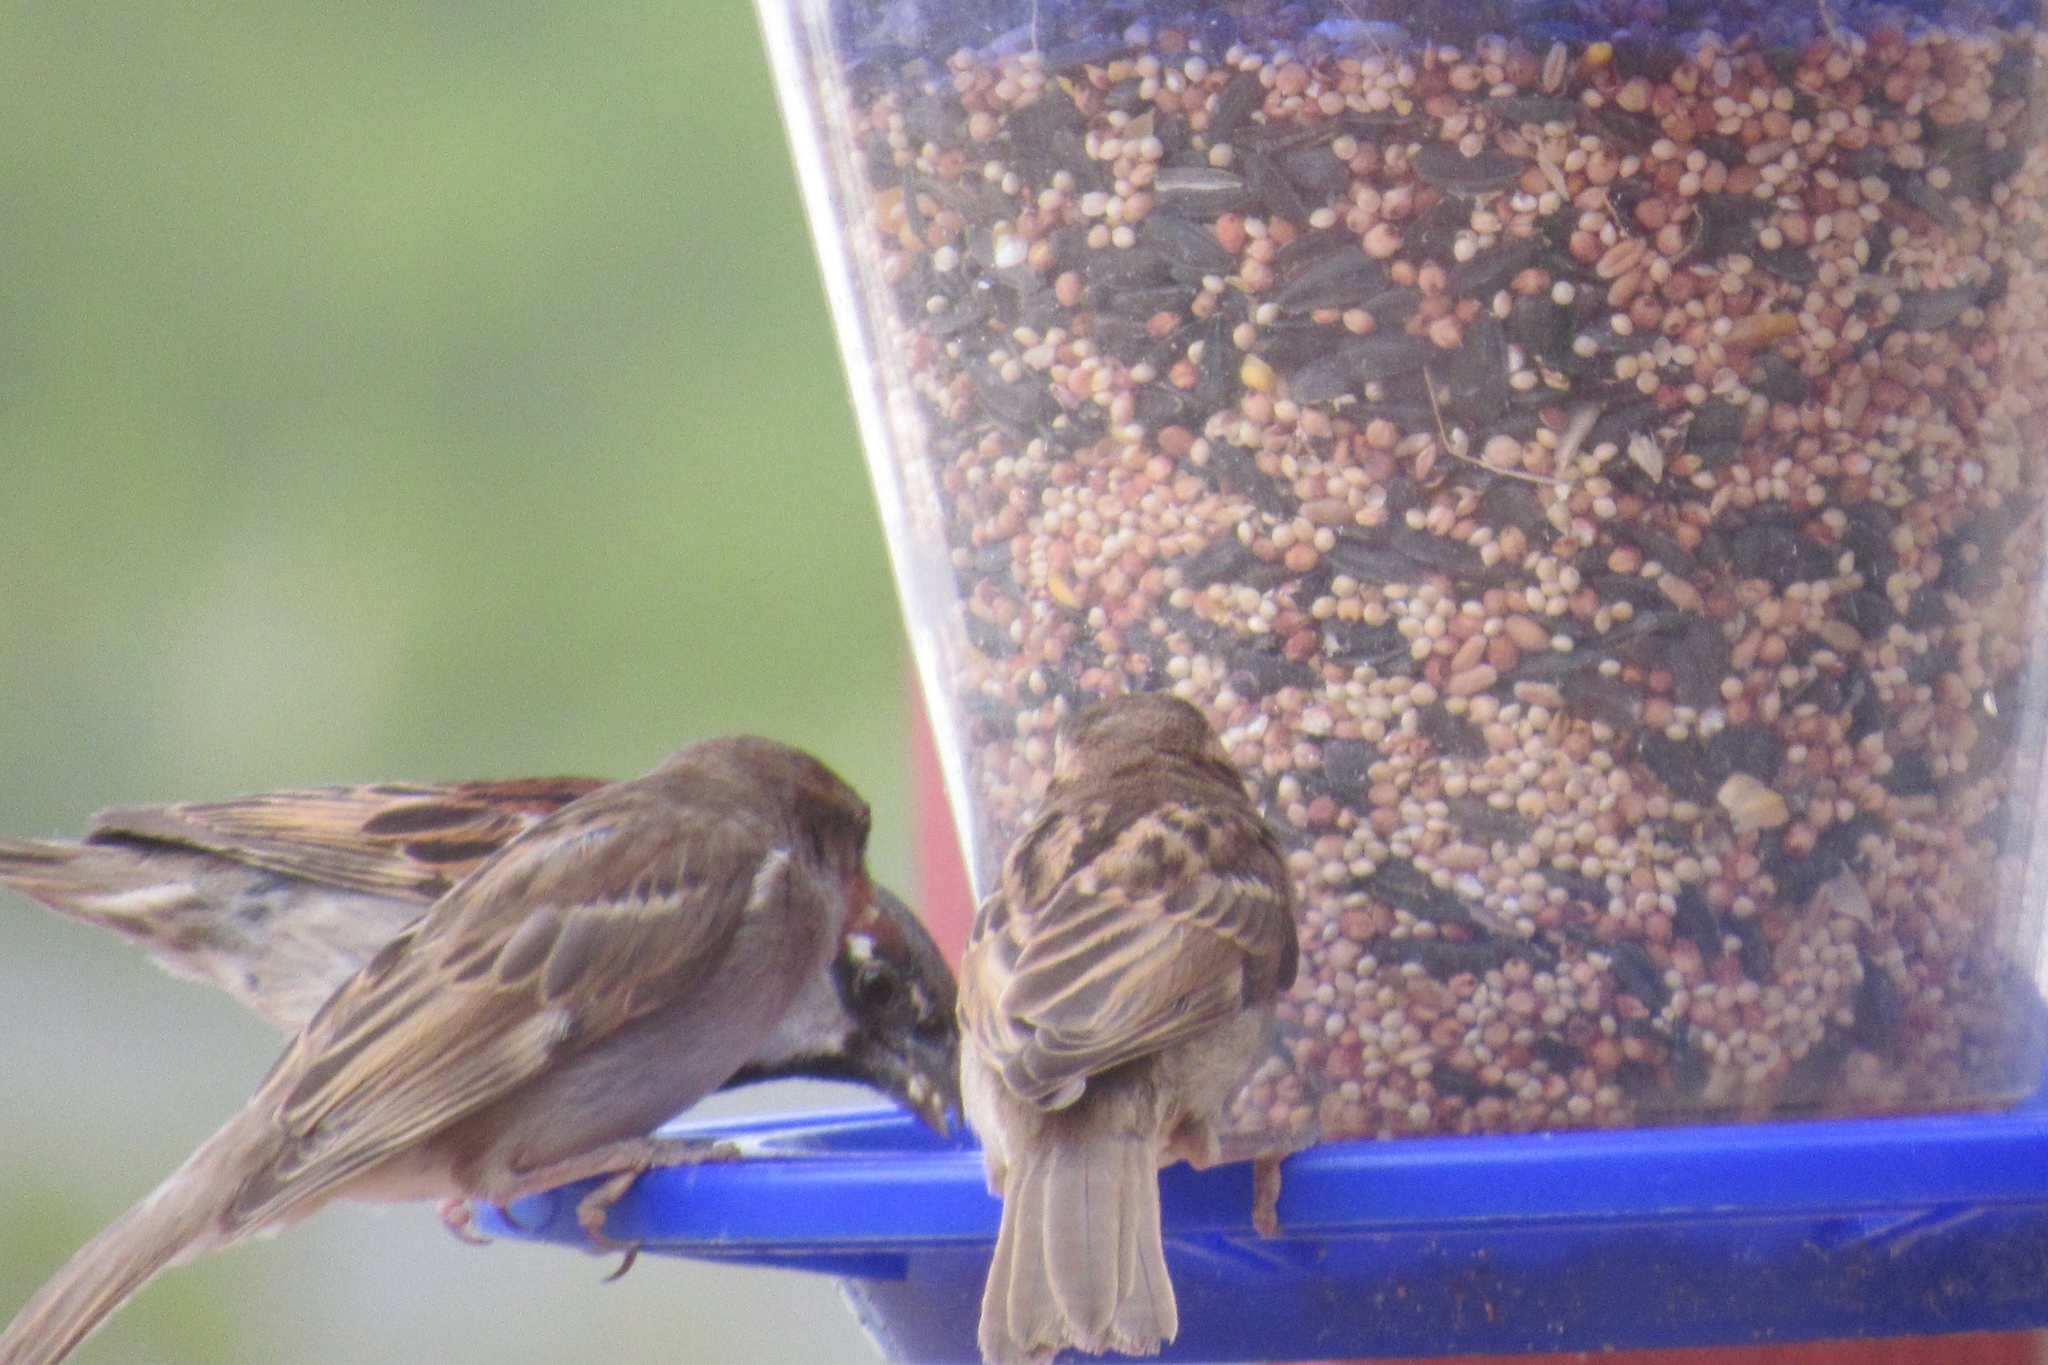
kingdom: Animalia
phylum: Chordata
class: Aves
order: Passeriformes
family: Passeridae
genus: Passer
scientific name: Passer domesticus
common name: House sparrow
